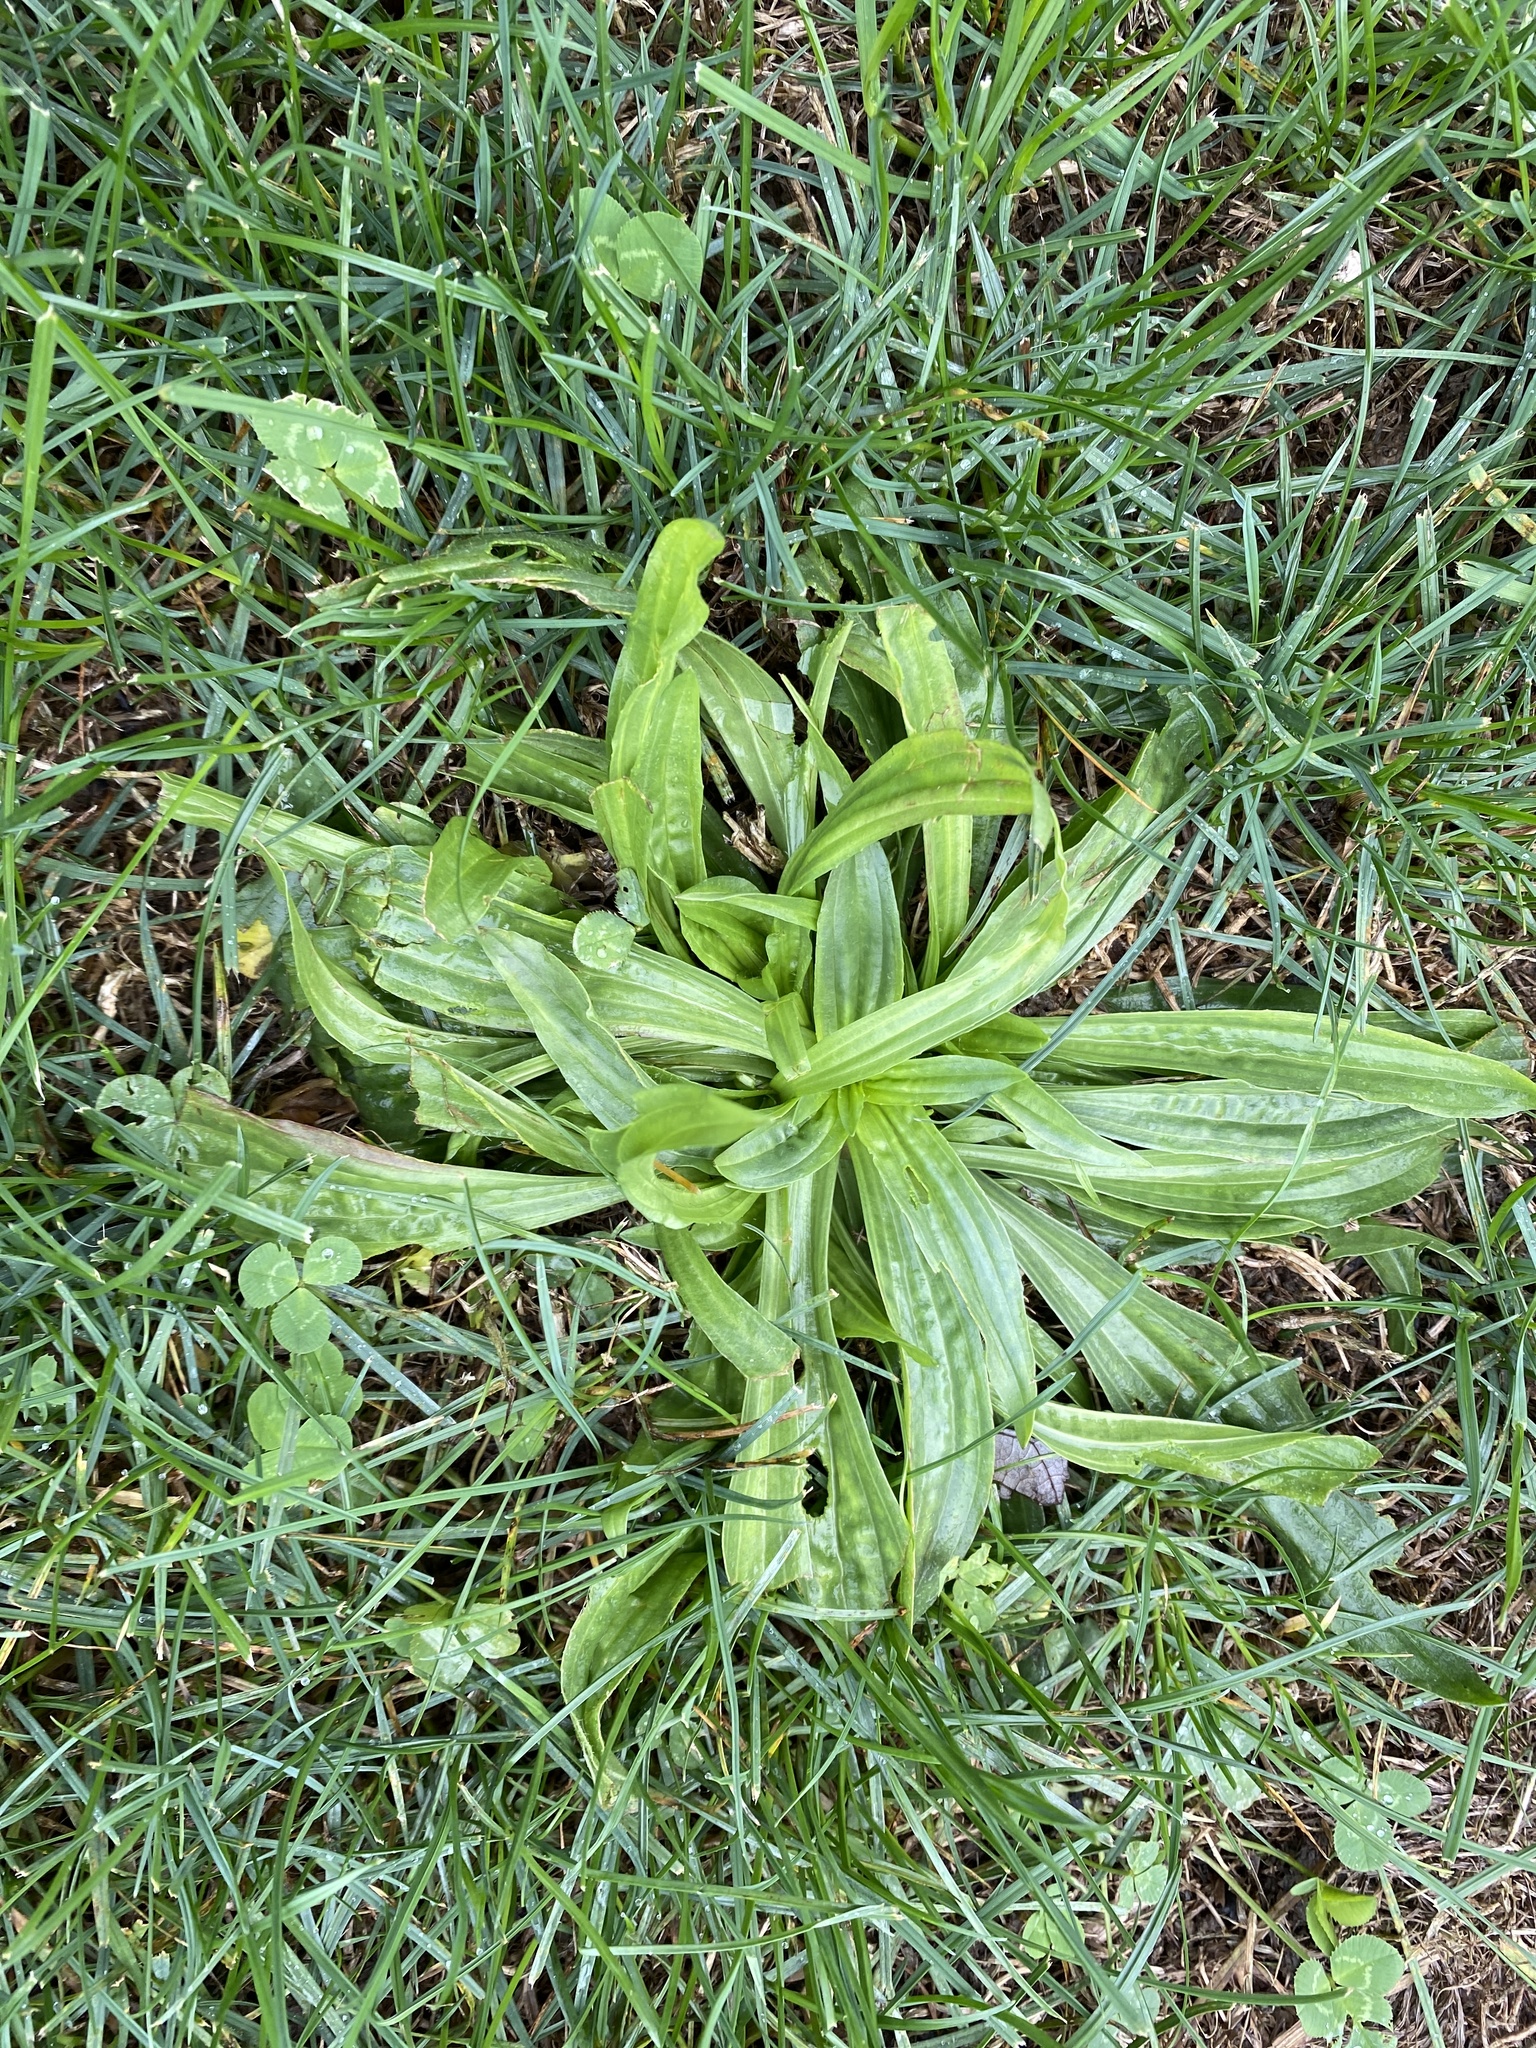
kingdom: Plantae
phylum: Tracheophyta
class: Magnoliopsida
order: Lamiales
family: Plantaginaceae
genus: Plantago
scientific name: Plantago lanceolata
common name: Ribwort plantain
